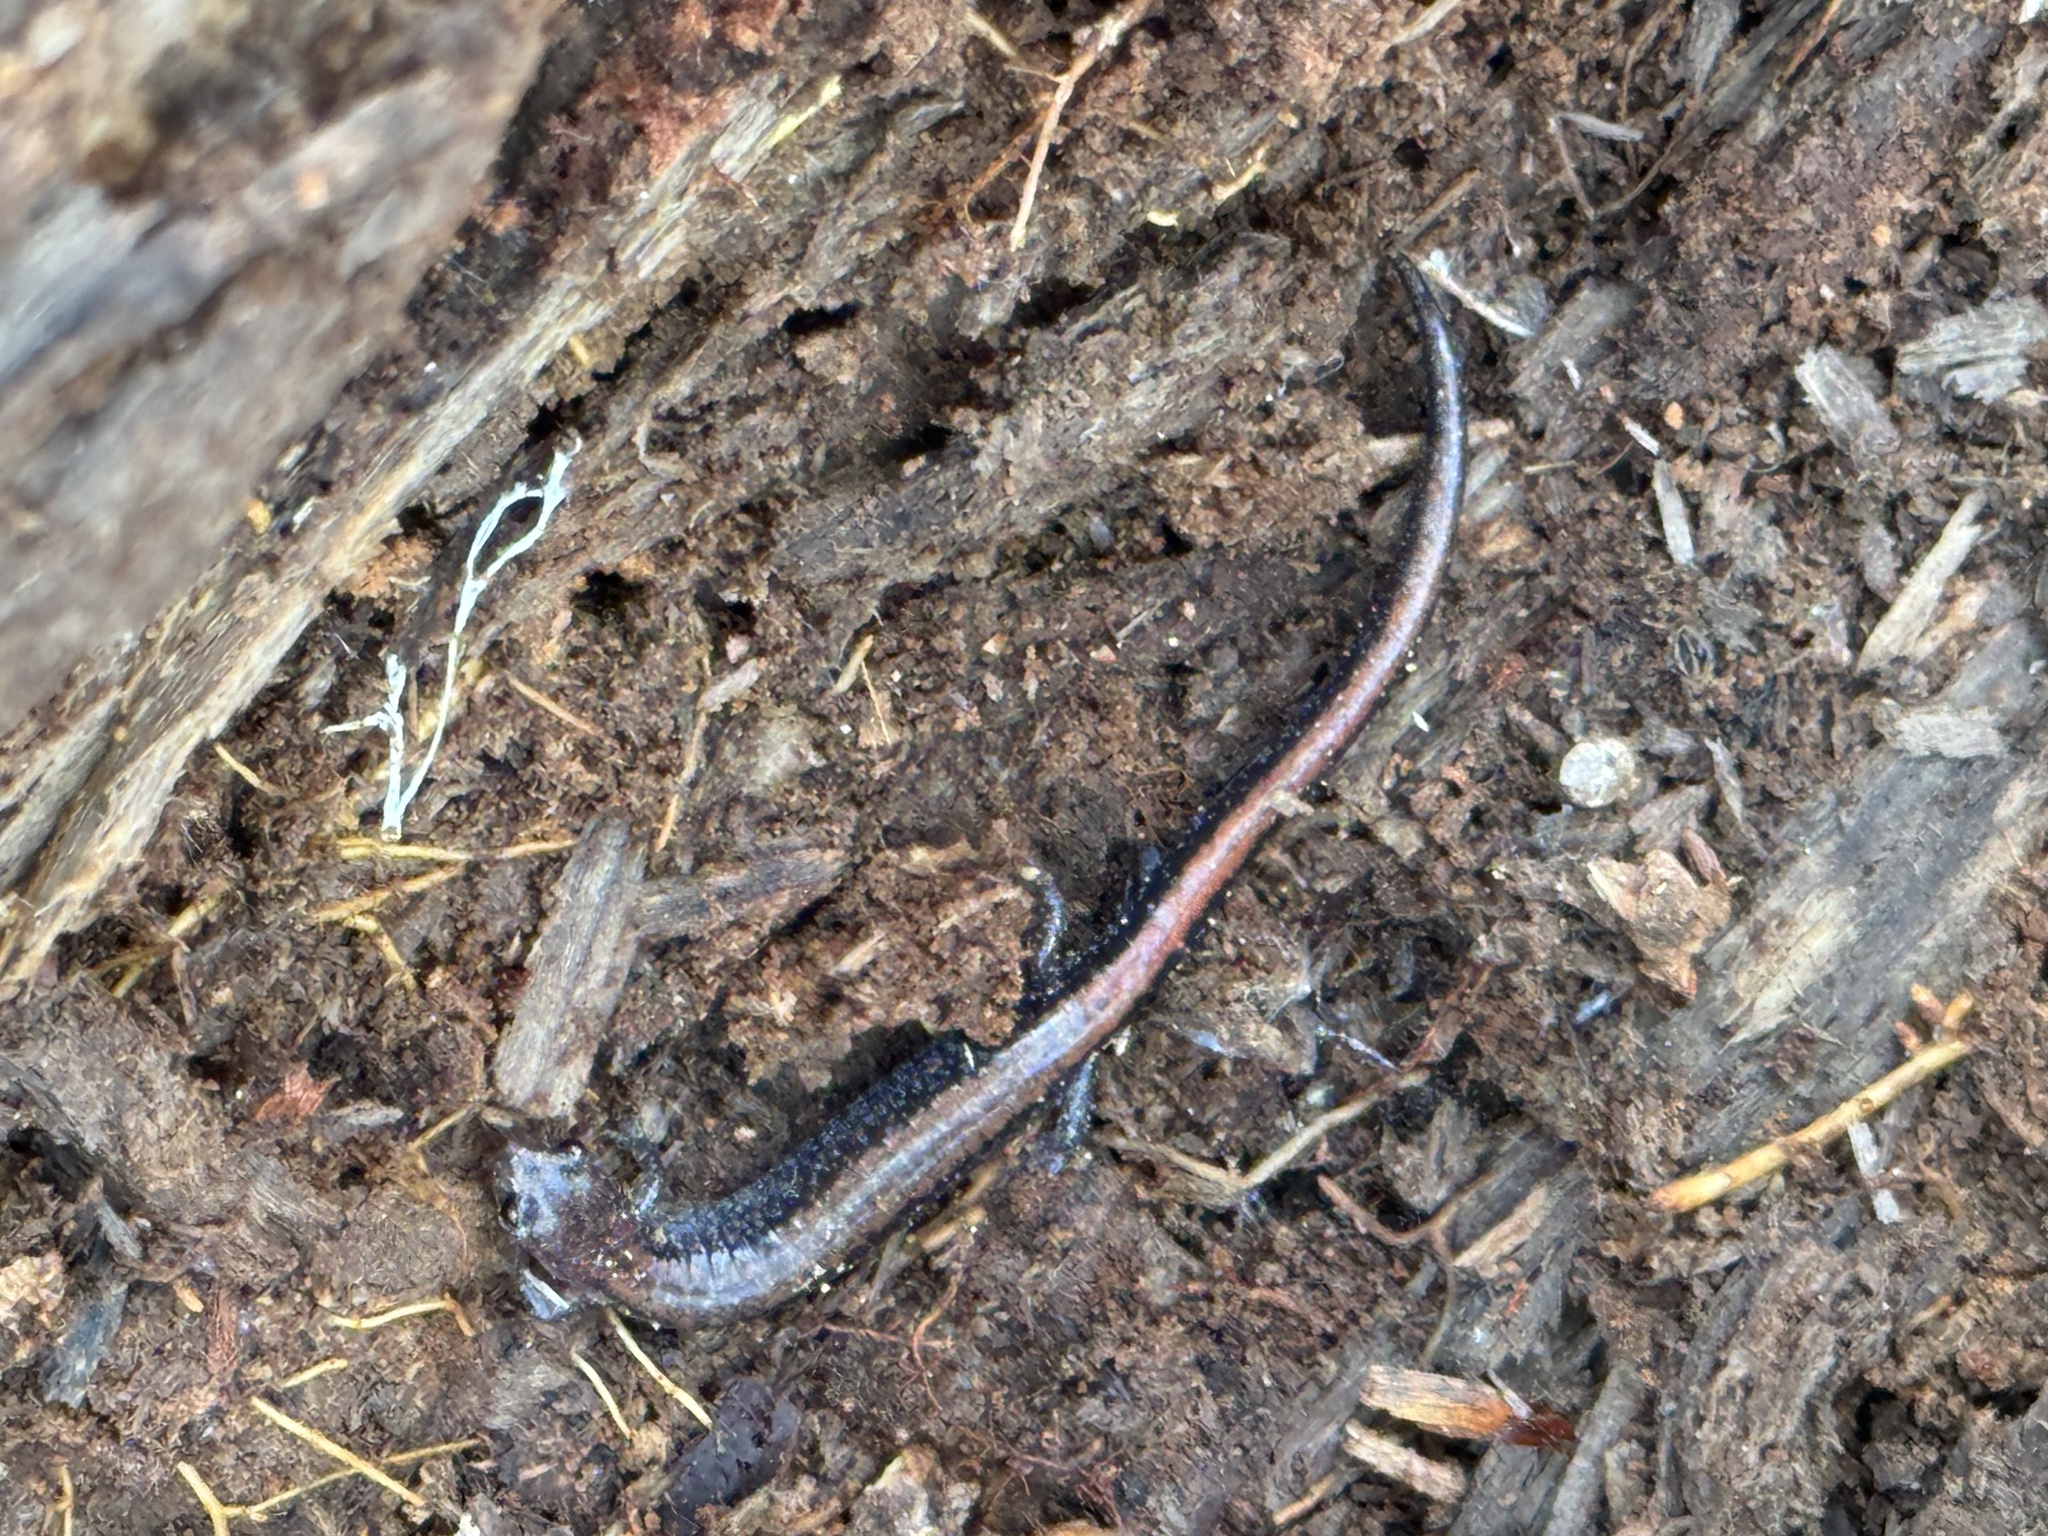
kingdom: Animalia
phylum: Chordata
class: Amphibia
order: Caudata
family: Plethodontidae
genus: Plethodon
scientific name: Plethodon cinereus
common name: Redback salamander
